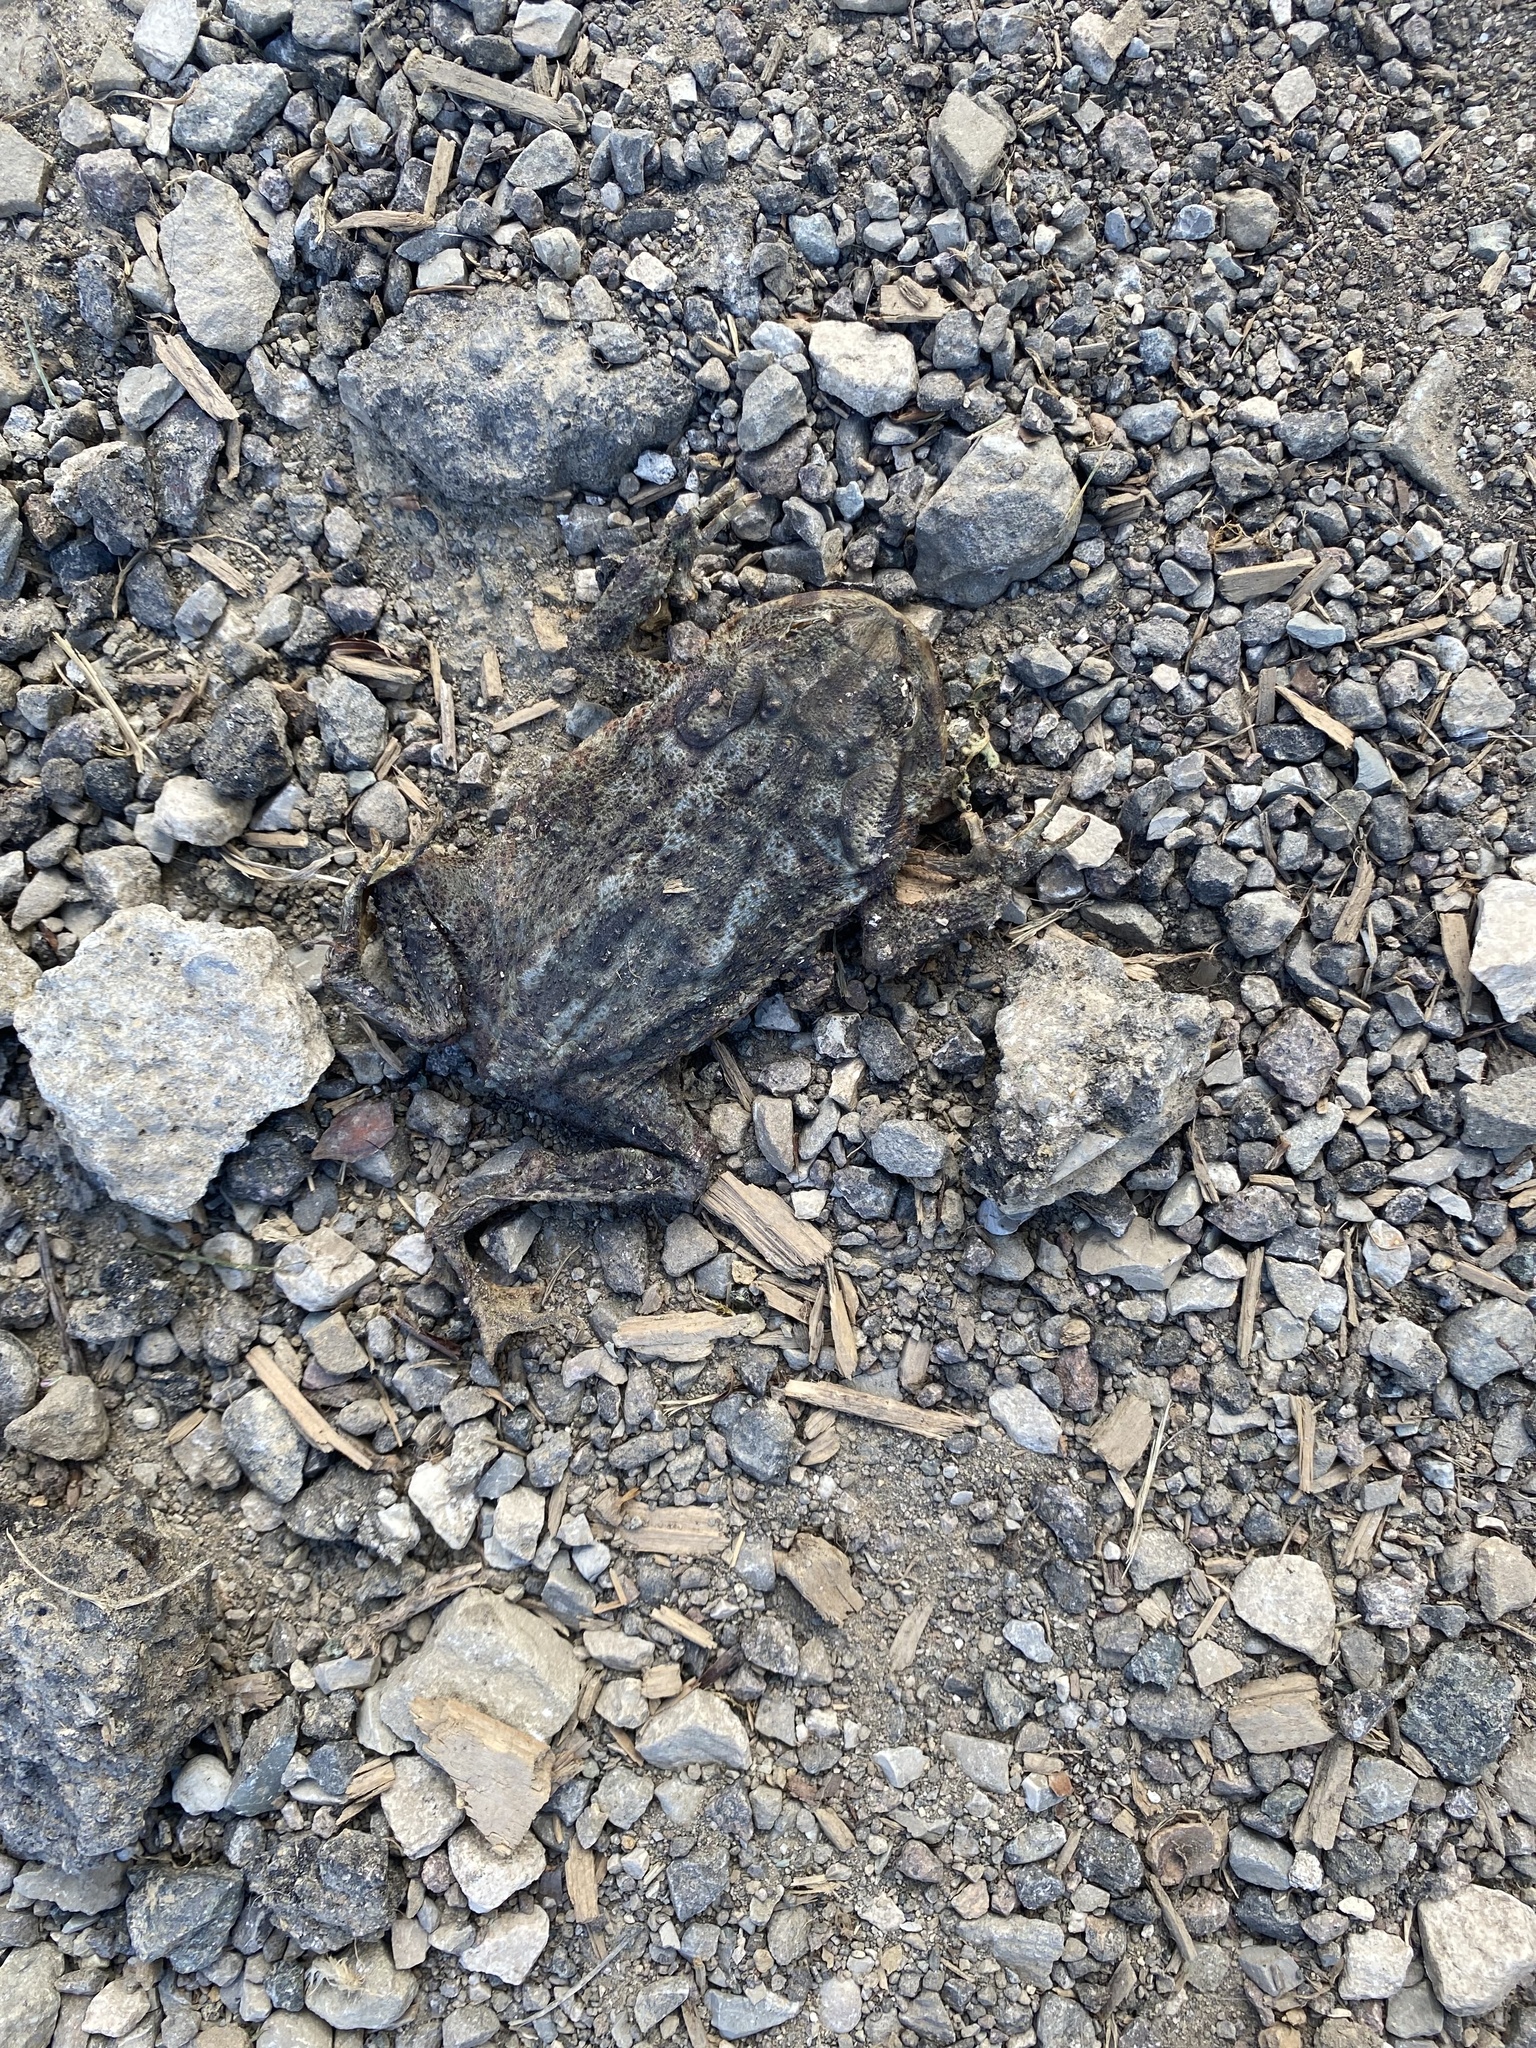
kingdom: Animalia
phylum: Chordata
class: Amphibia
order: Anura
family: Bufonidae
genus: Bufo
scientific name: Bufo bufo
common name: Common toad
